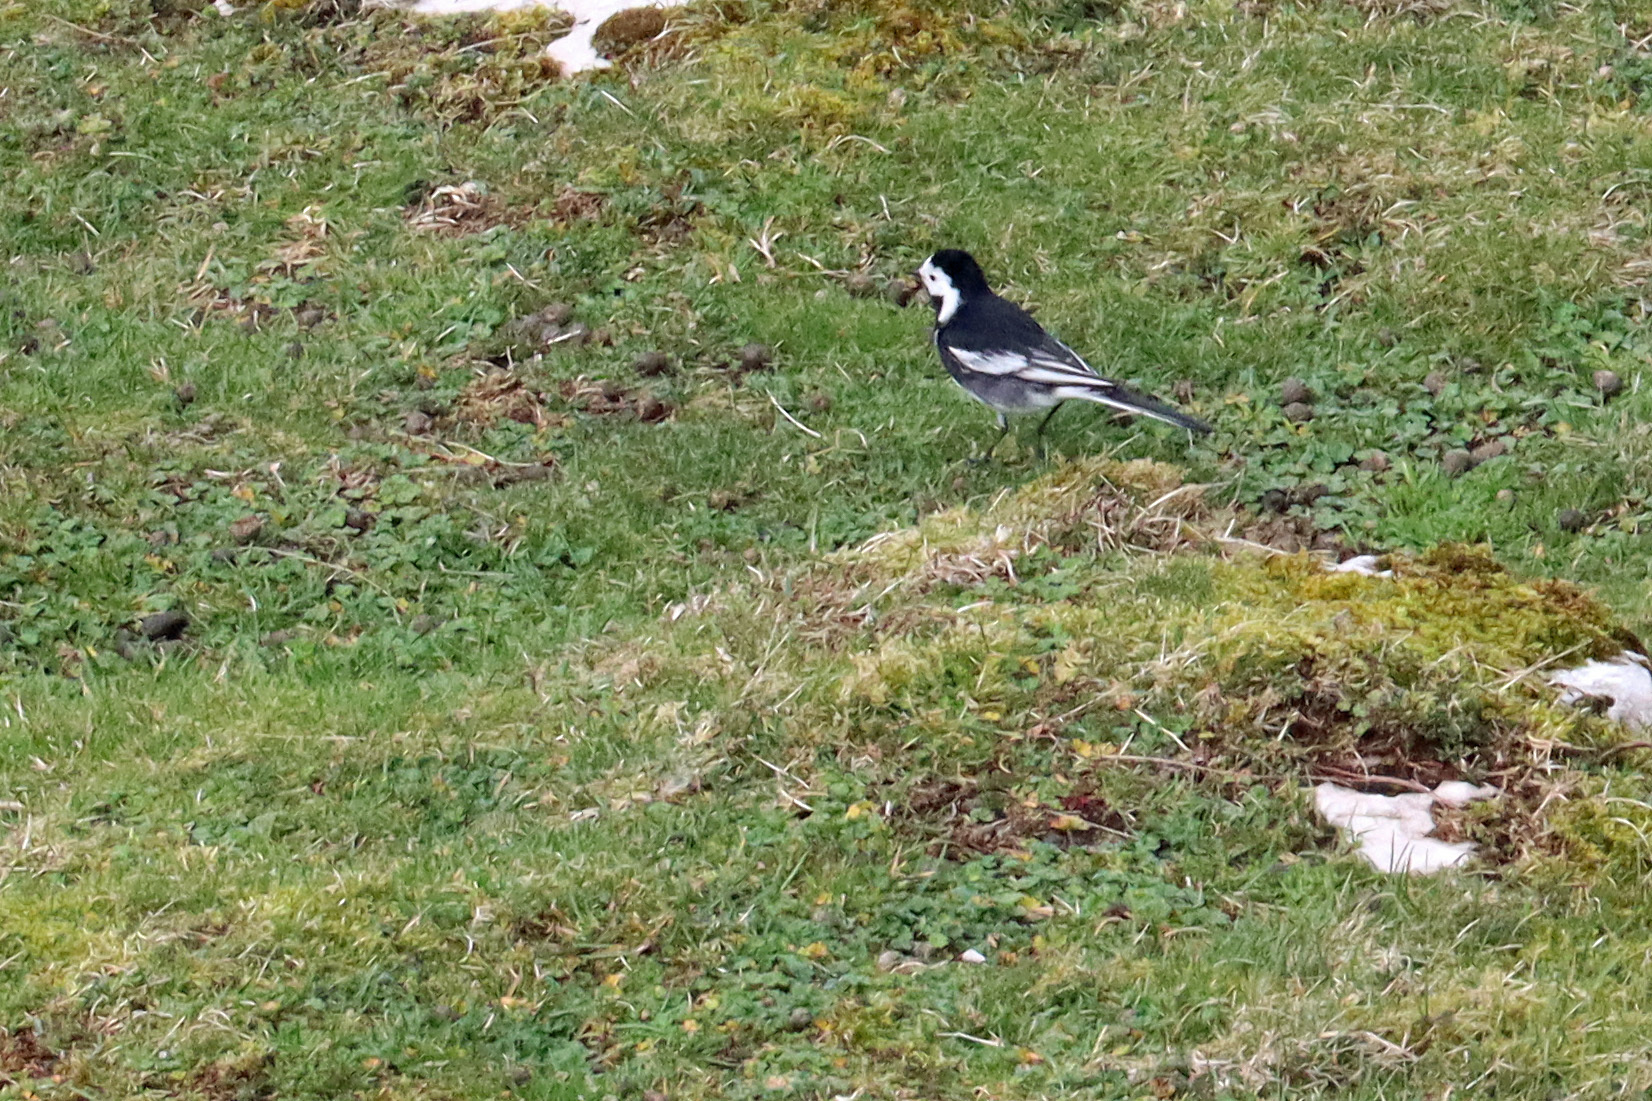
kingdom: Animalia
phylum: Chordata
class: Aves
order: Passeriformes
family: Motacillidae
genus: Motacilla
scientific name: Motacilla alba
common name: White wagtail
